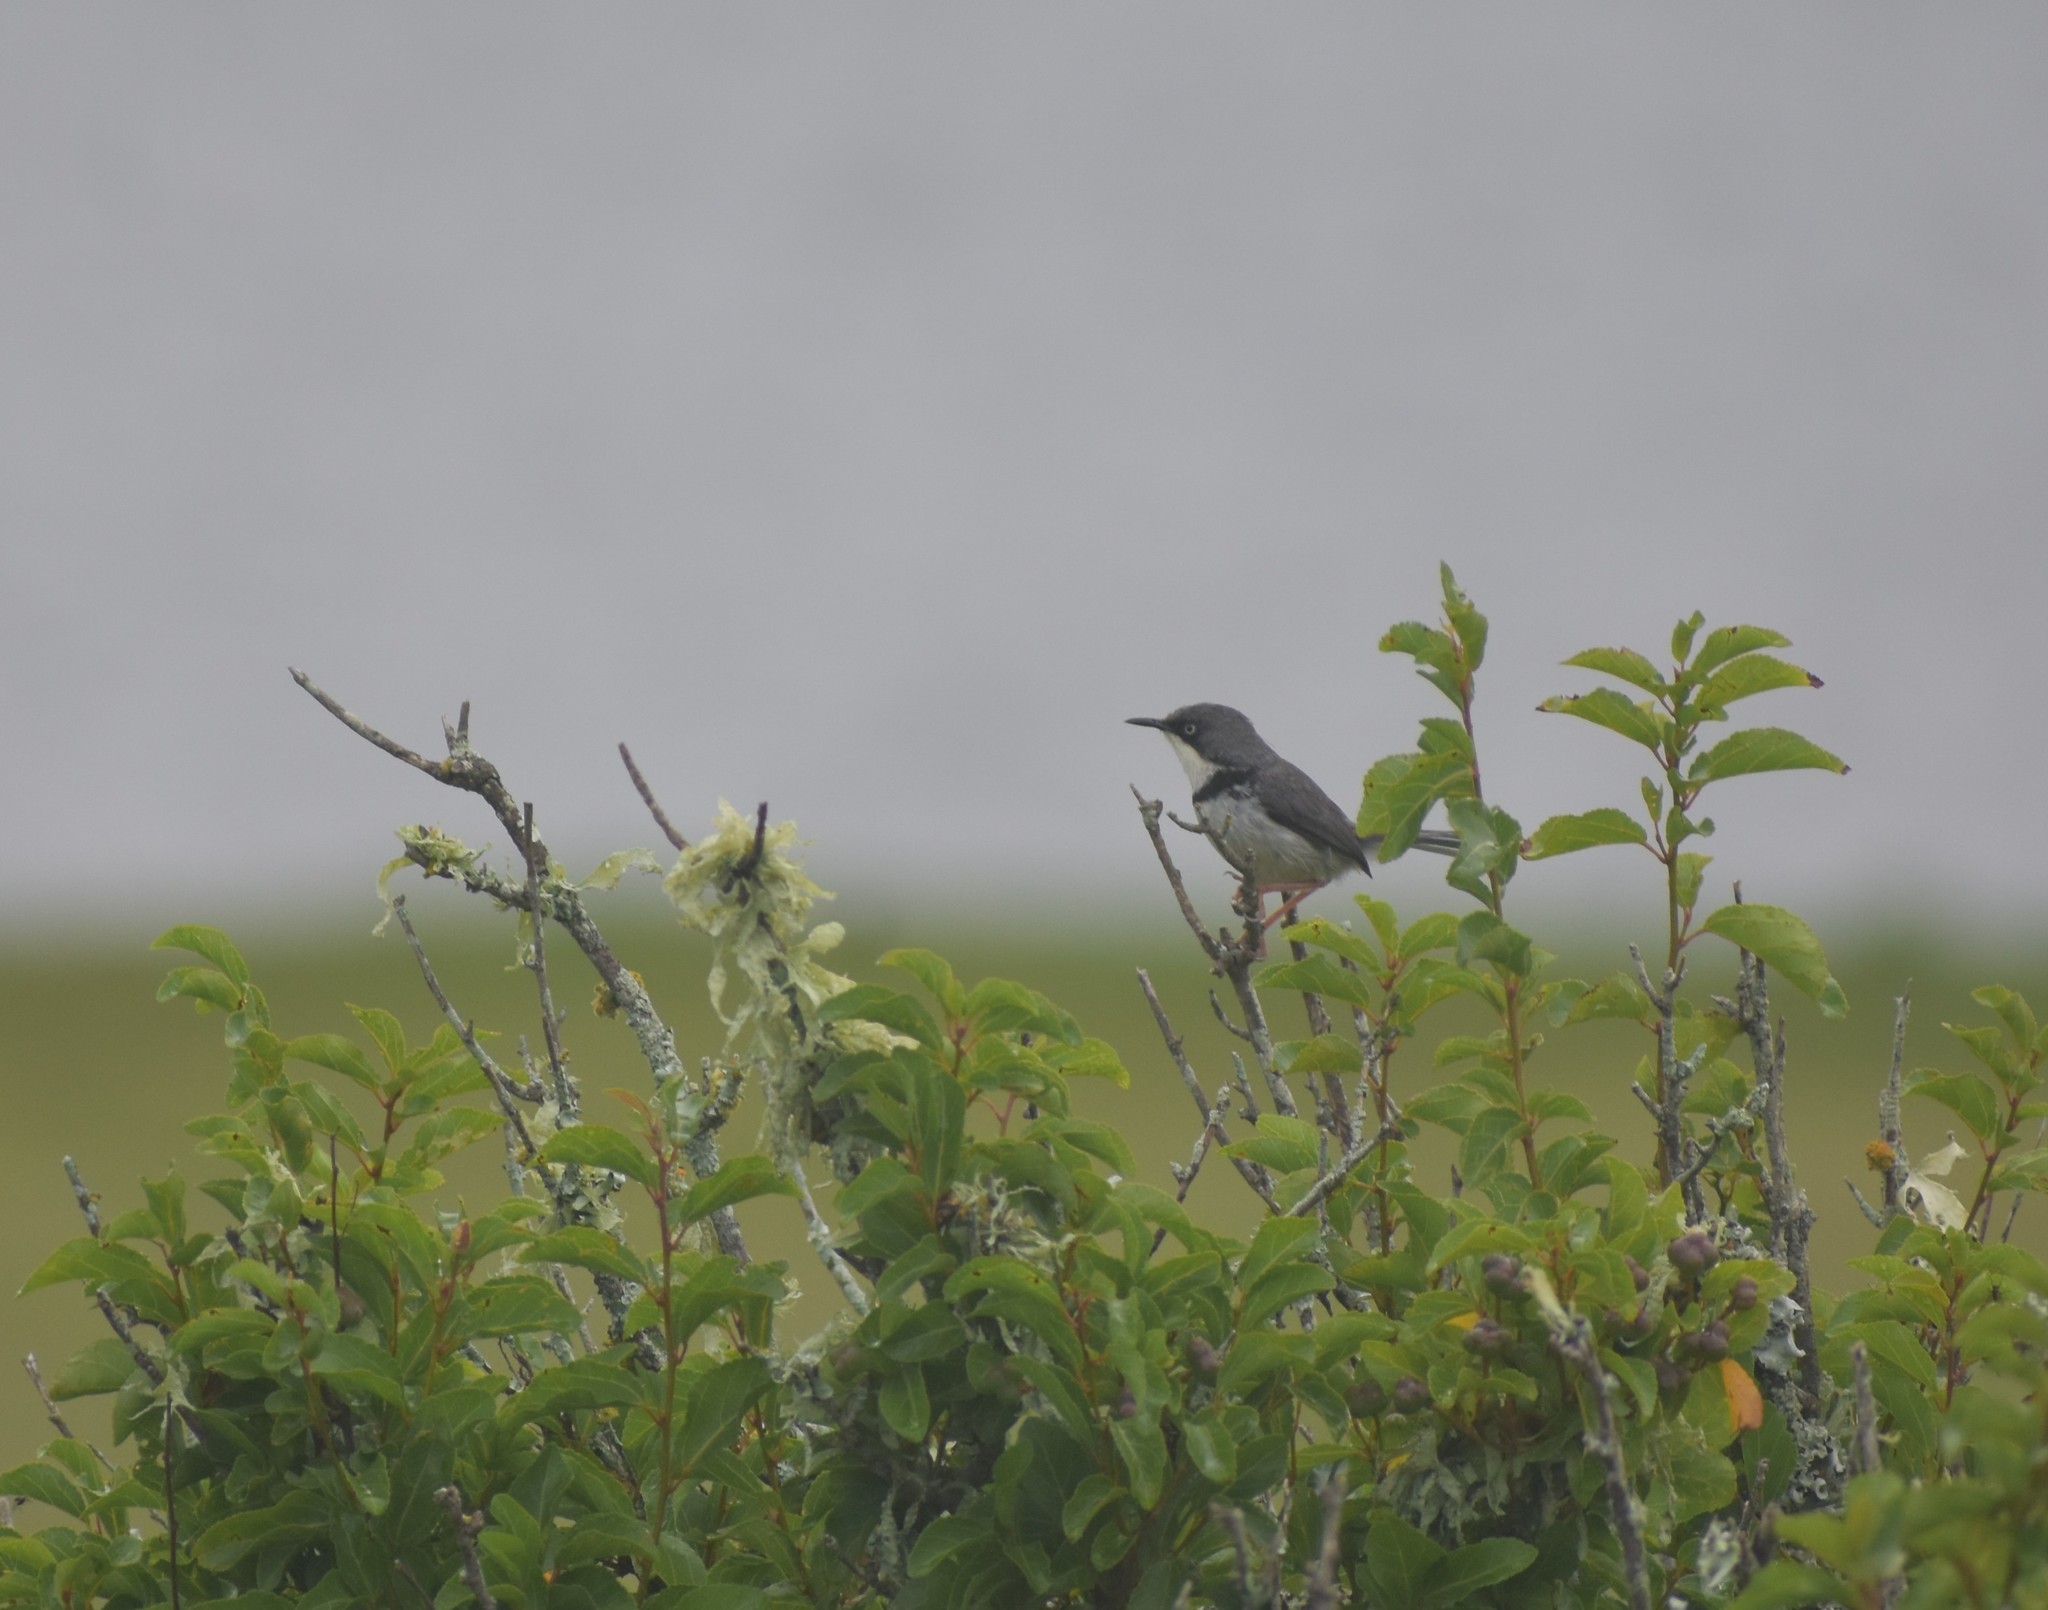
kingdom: Animalia
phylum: Chordata
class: Aves
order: Passeriformes
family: Cisticolidae
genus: Apalis
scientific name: Apalis thoracica
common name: Bar-throated apalis
